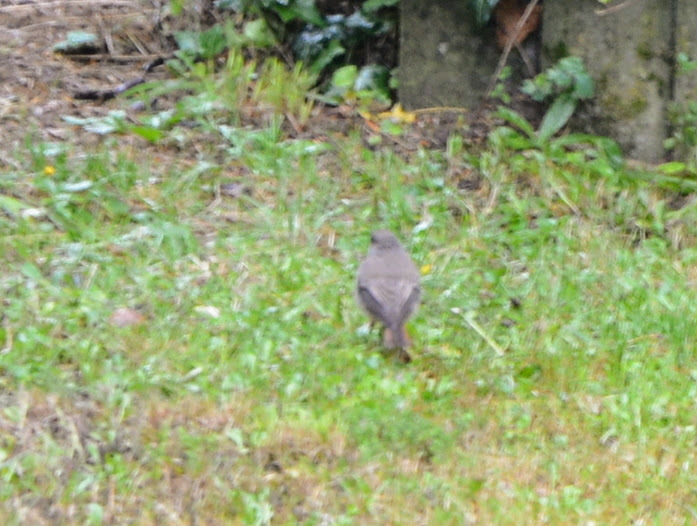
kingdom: Animalia
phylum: Chordata
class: Aves
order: Passeriformes
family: Muscicapidae
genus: Phoenicurus
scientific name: Phoenicurus ochruros
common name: Black redstart
